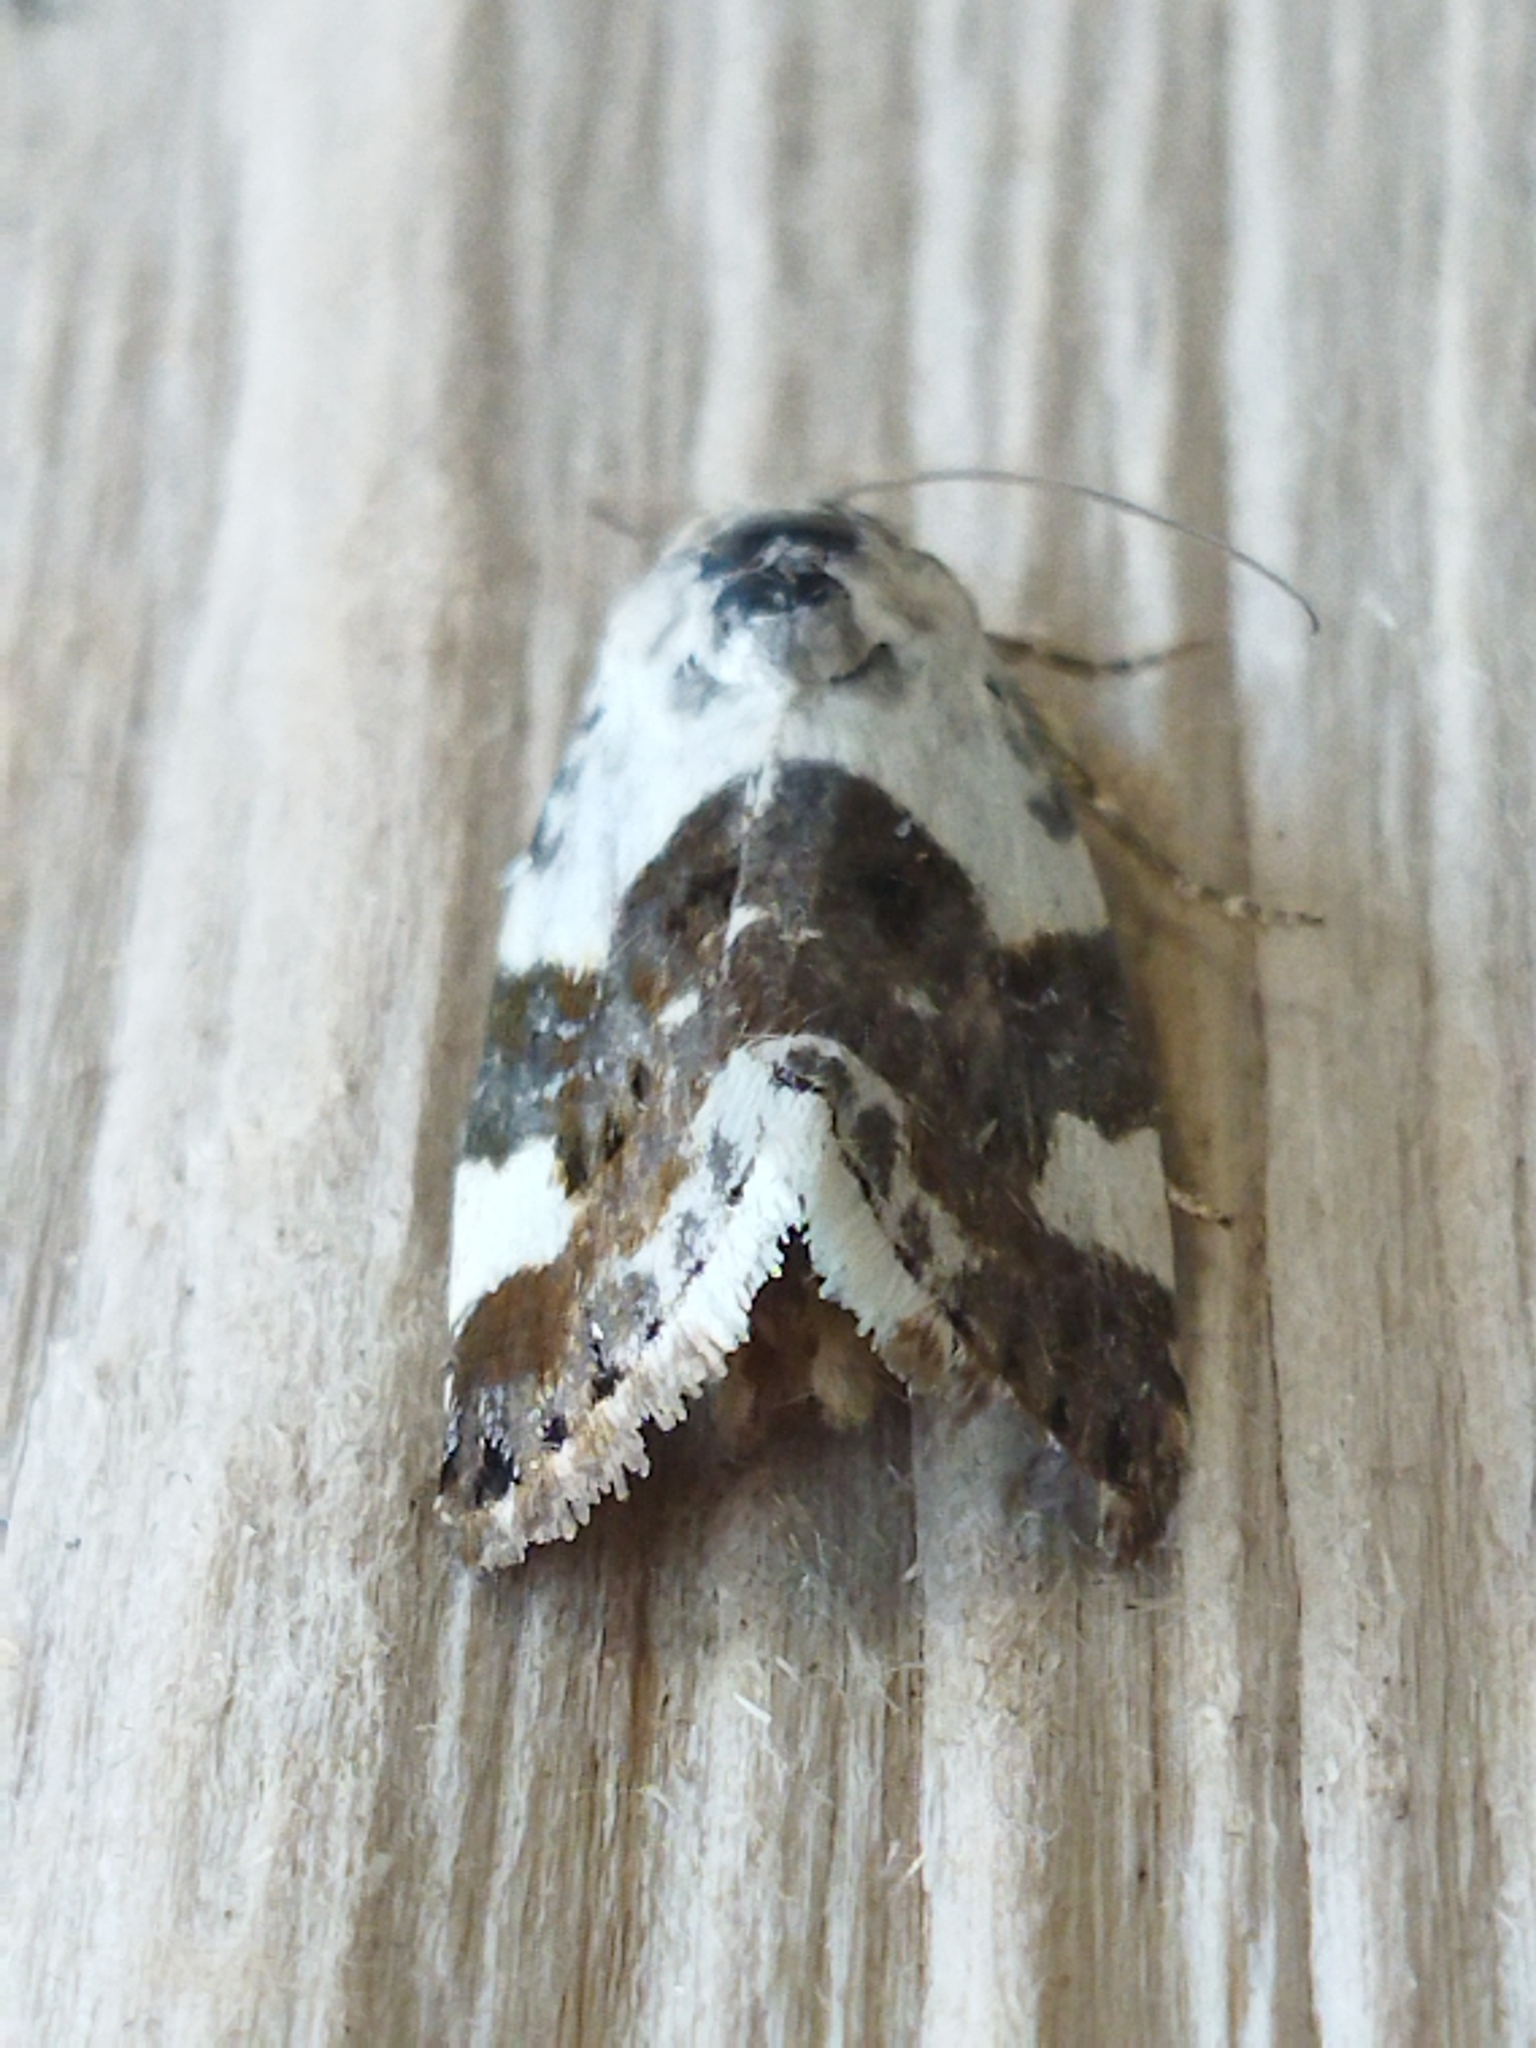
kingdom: Animalia
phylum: Arthropoda
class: Insecta
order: Lepidoptera
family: Noctuidae
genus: Acontia
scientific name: Acontia lucida
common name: Pale shoulder
